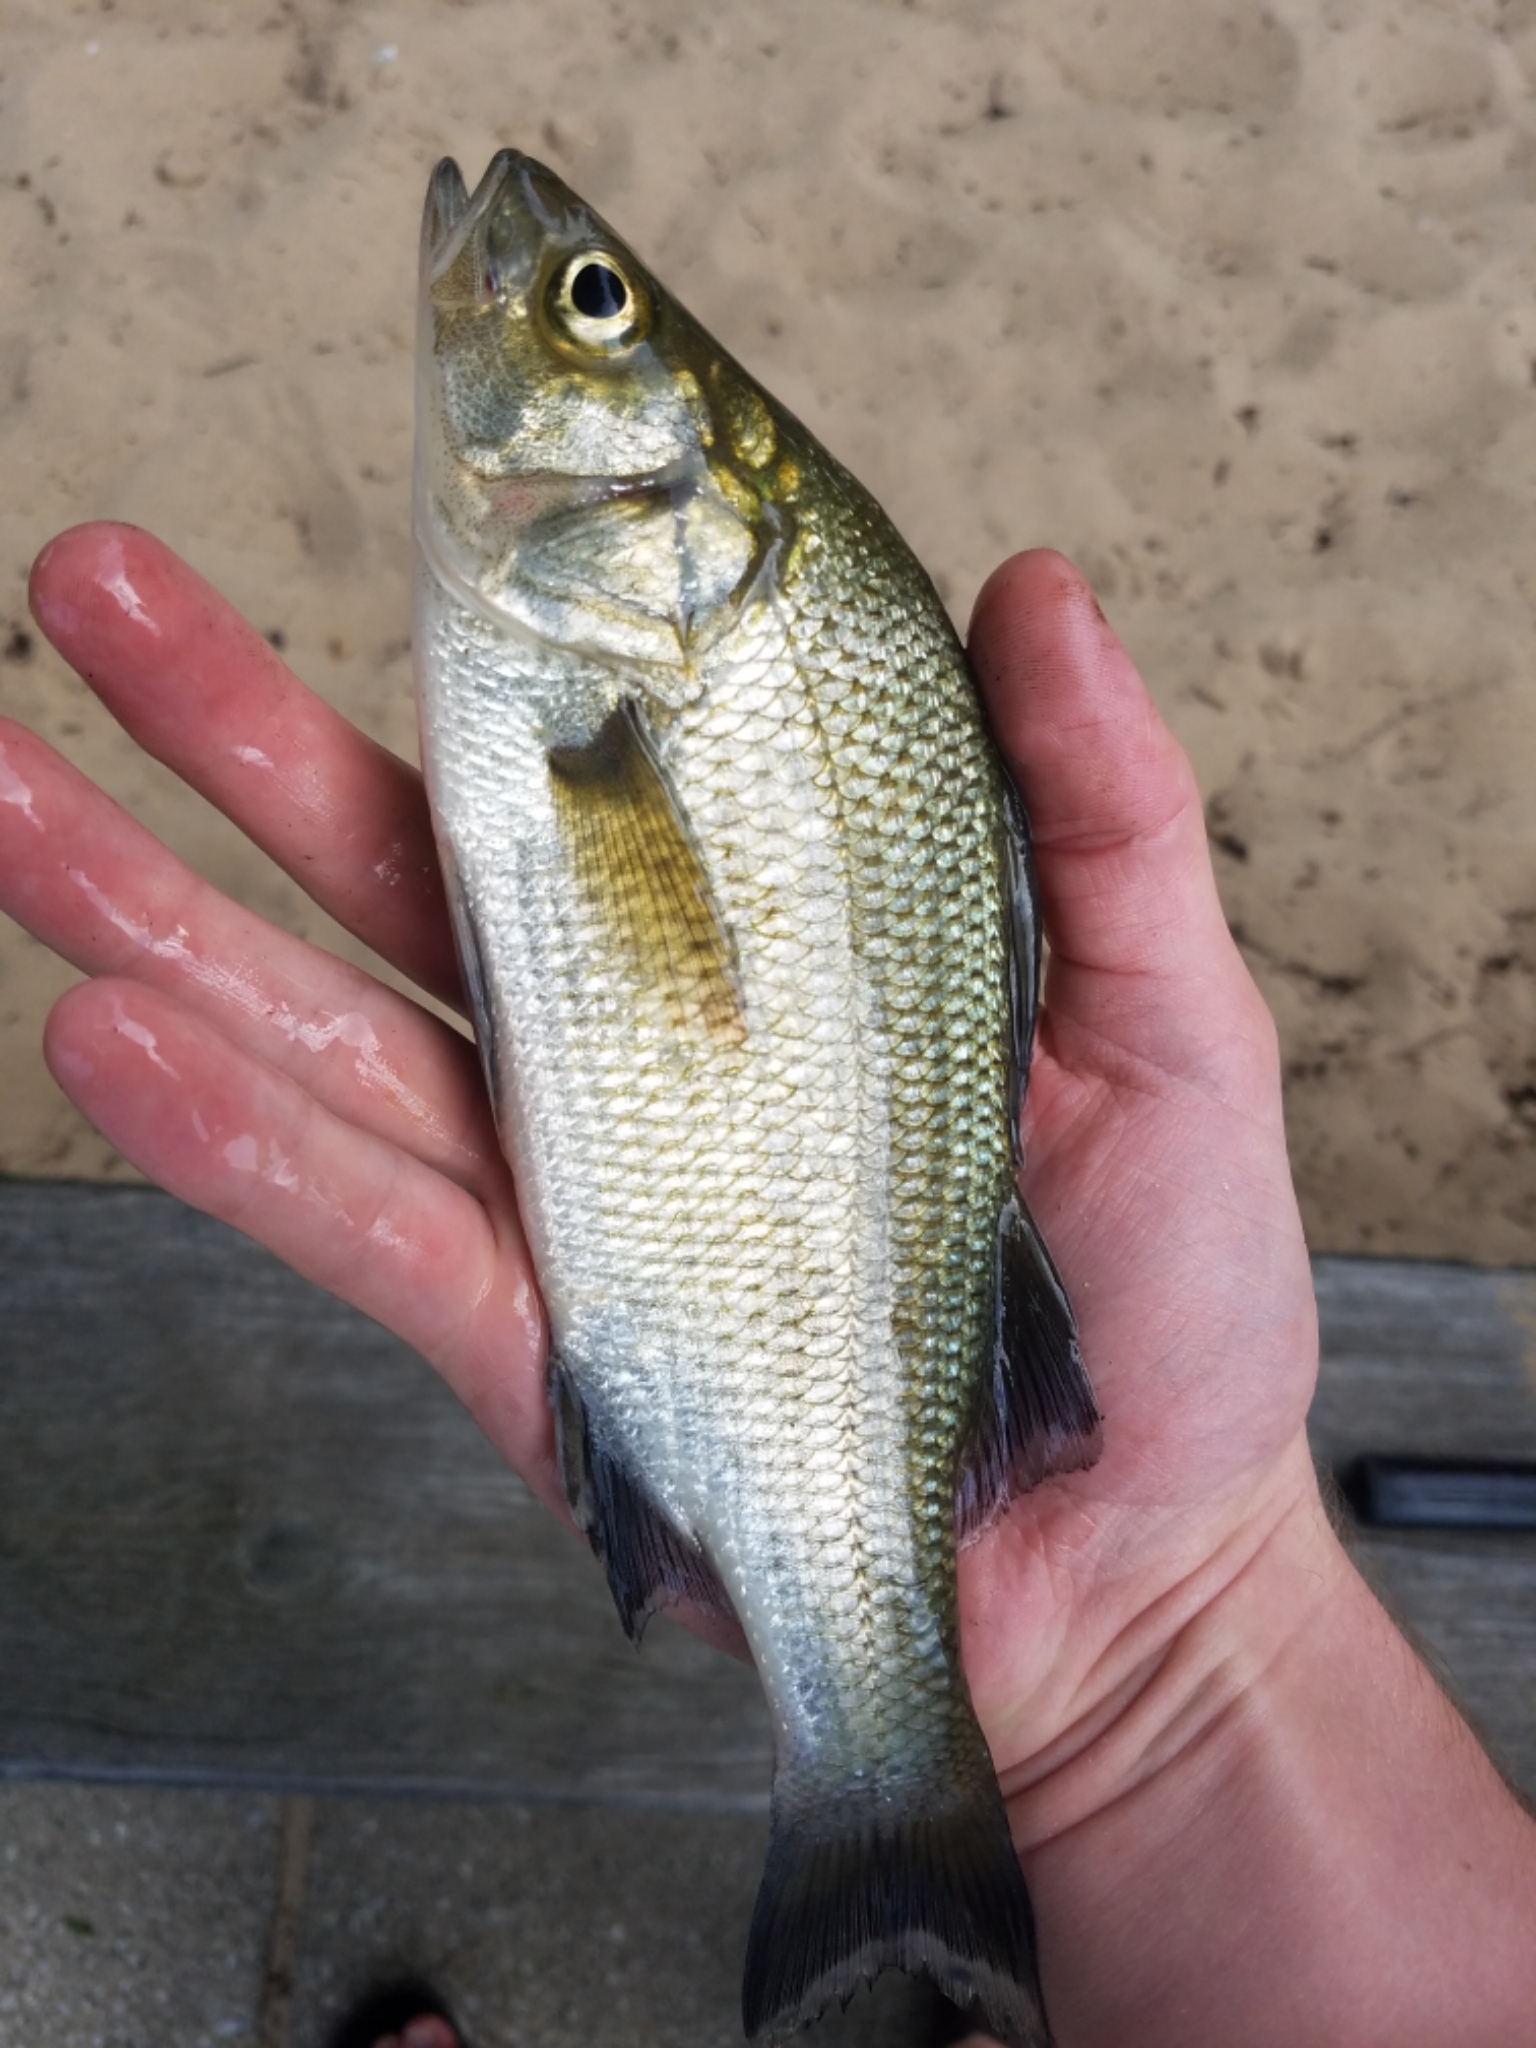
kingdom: Animalia
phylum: Chordata
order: Perciformes
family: Moronidae
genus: Morone
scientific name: Morone americana
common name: White perch
